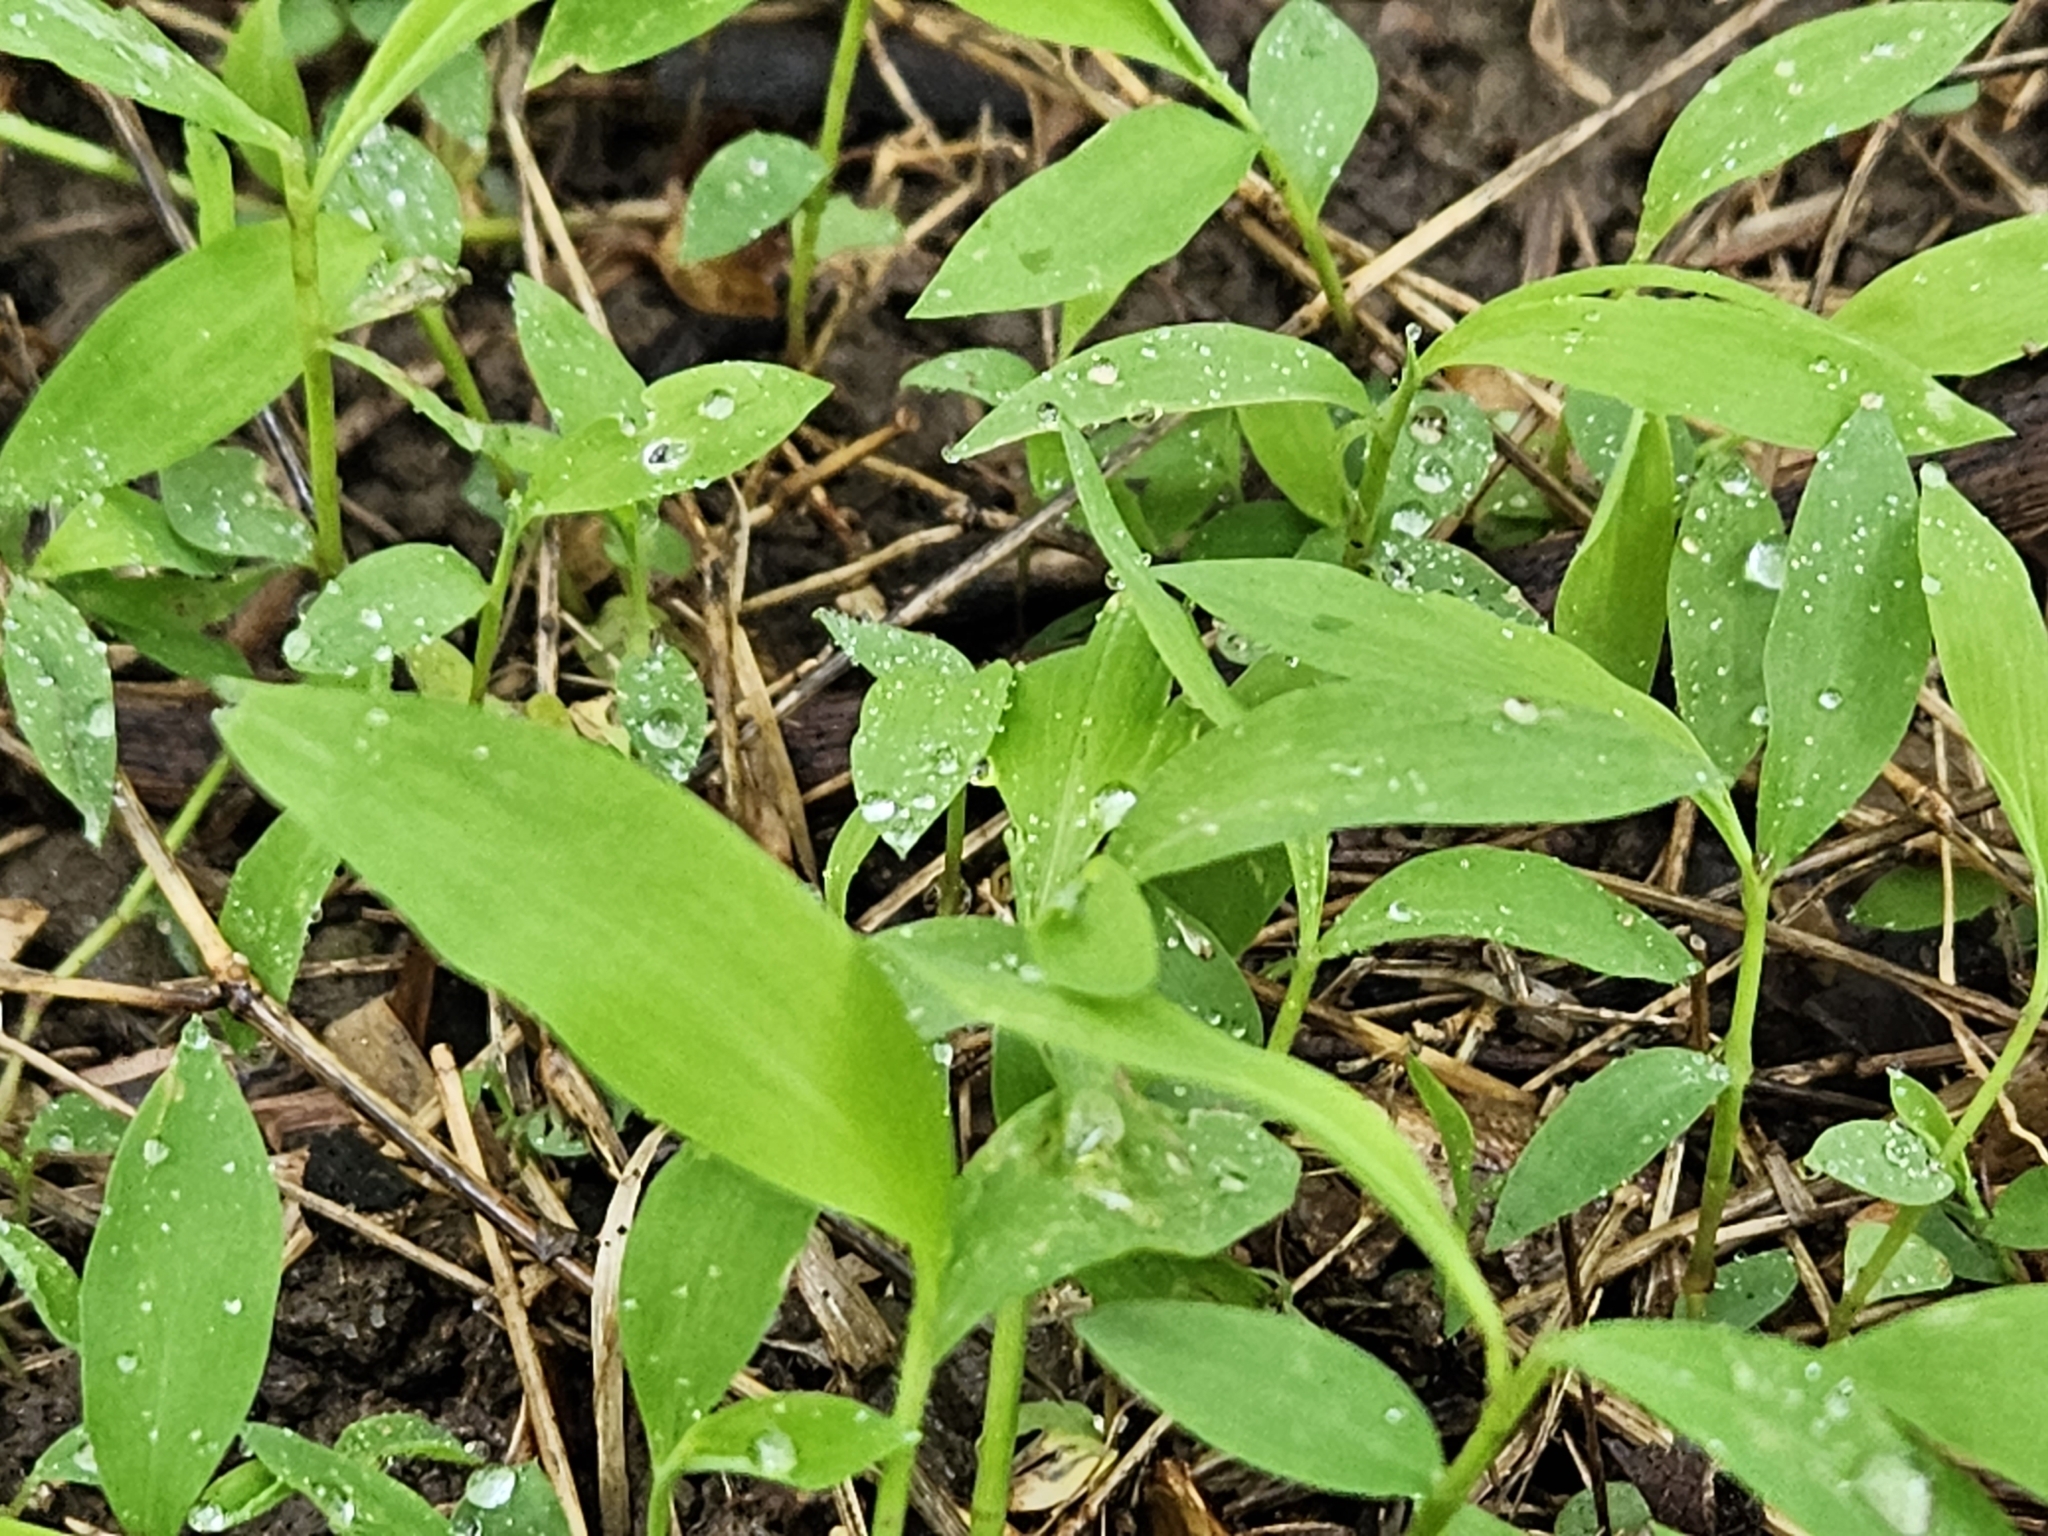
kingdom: Plantae
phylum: Tracheophyta
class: Liliopsida
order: Poales
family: Poaceae
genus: Microstegium
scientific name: Microstegium vimineum
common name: Japanese stiltgrass
